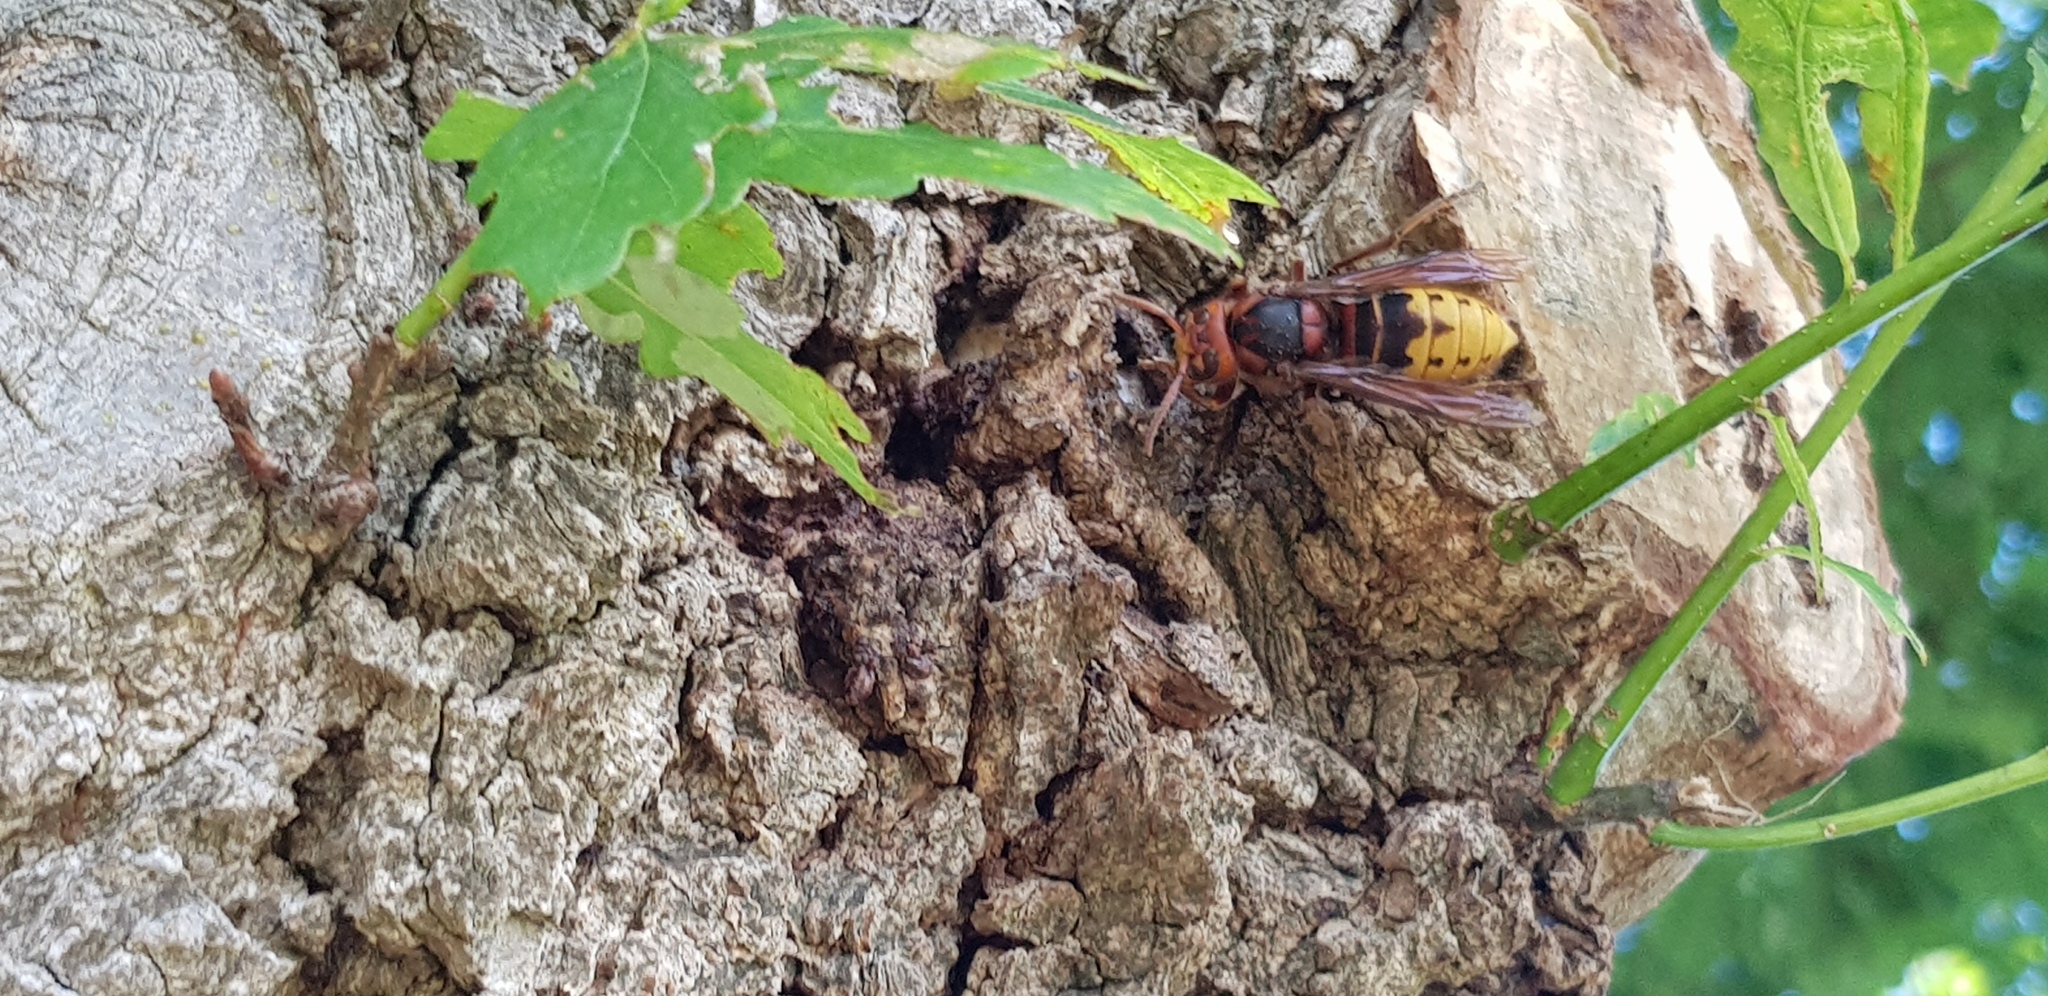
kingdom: Animalia
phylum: Arthropoda
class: Insecta
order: Hymenoptera
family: Vespidae
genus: Vespa
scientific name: Vespa crabro
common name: Hornet
